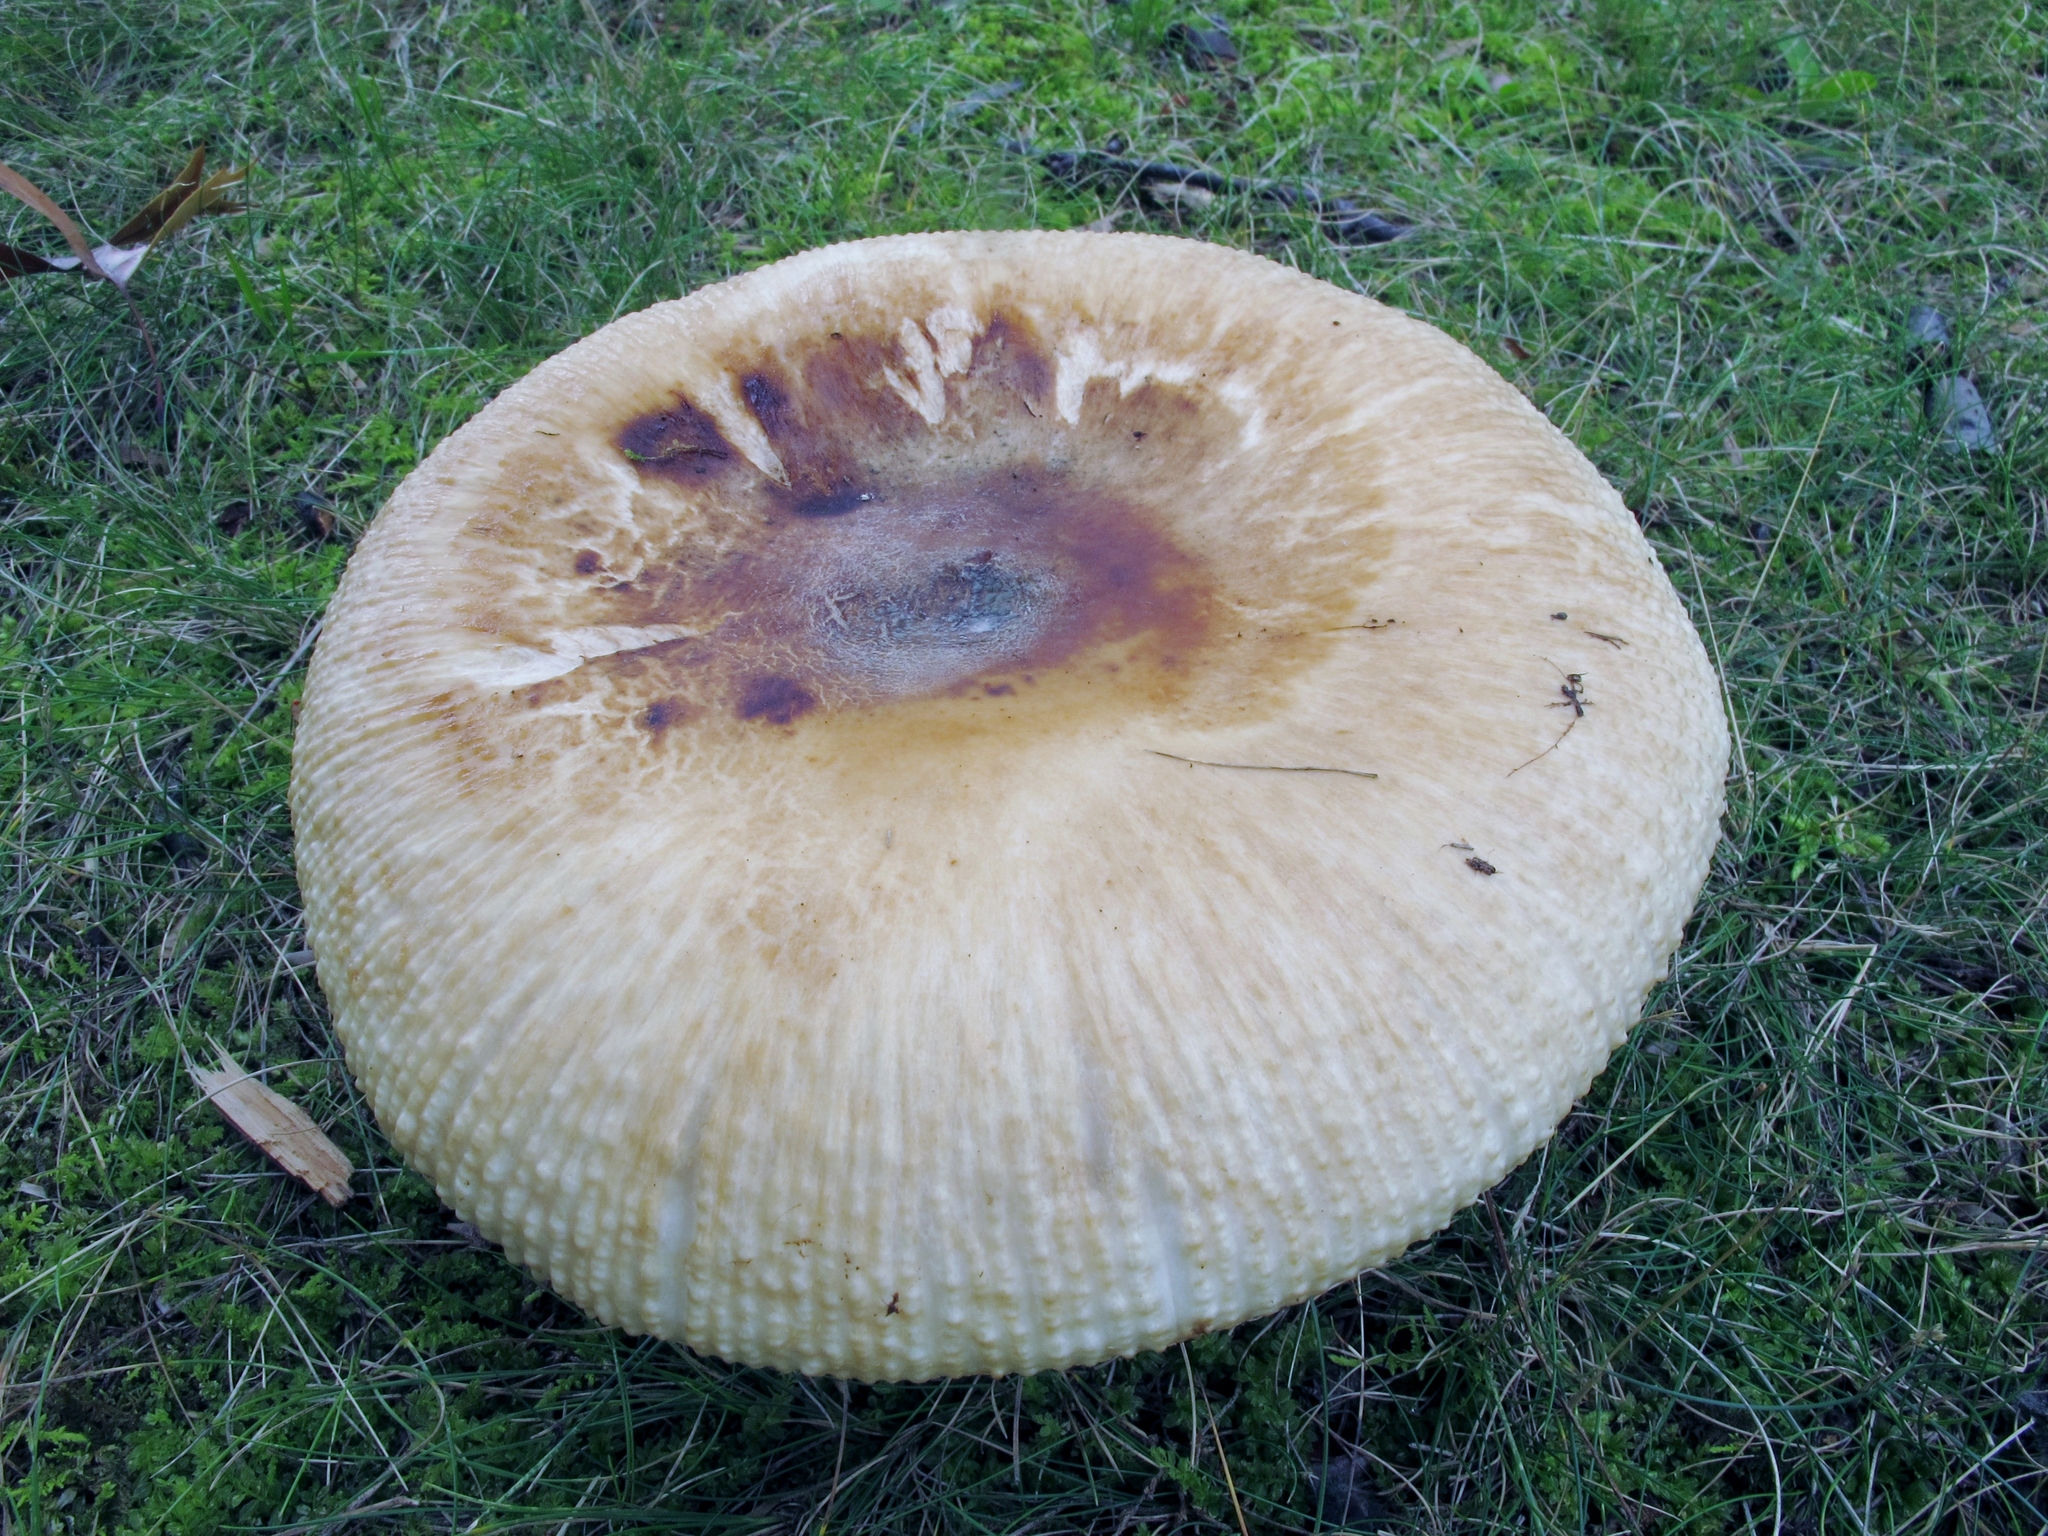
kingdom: Fungi
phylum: Basidiomycota
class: Agaricomycetes
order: Russulales
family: Russulaceae
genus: Russula
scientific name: Russula grata
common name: Bitter almond brittlegill
